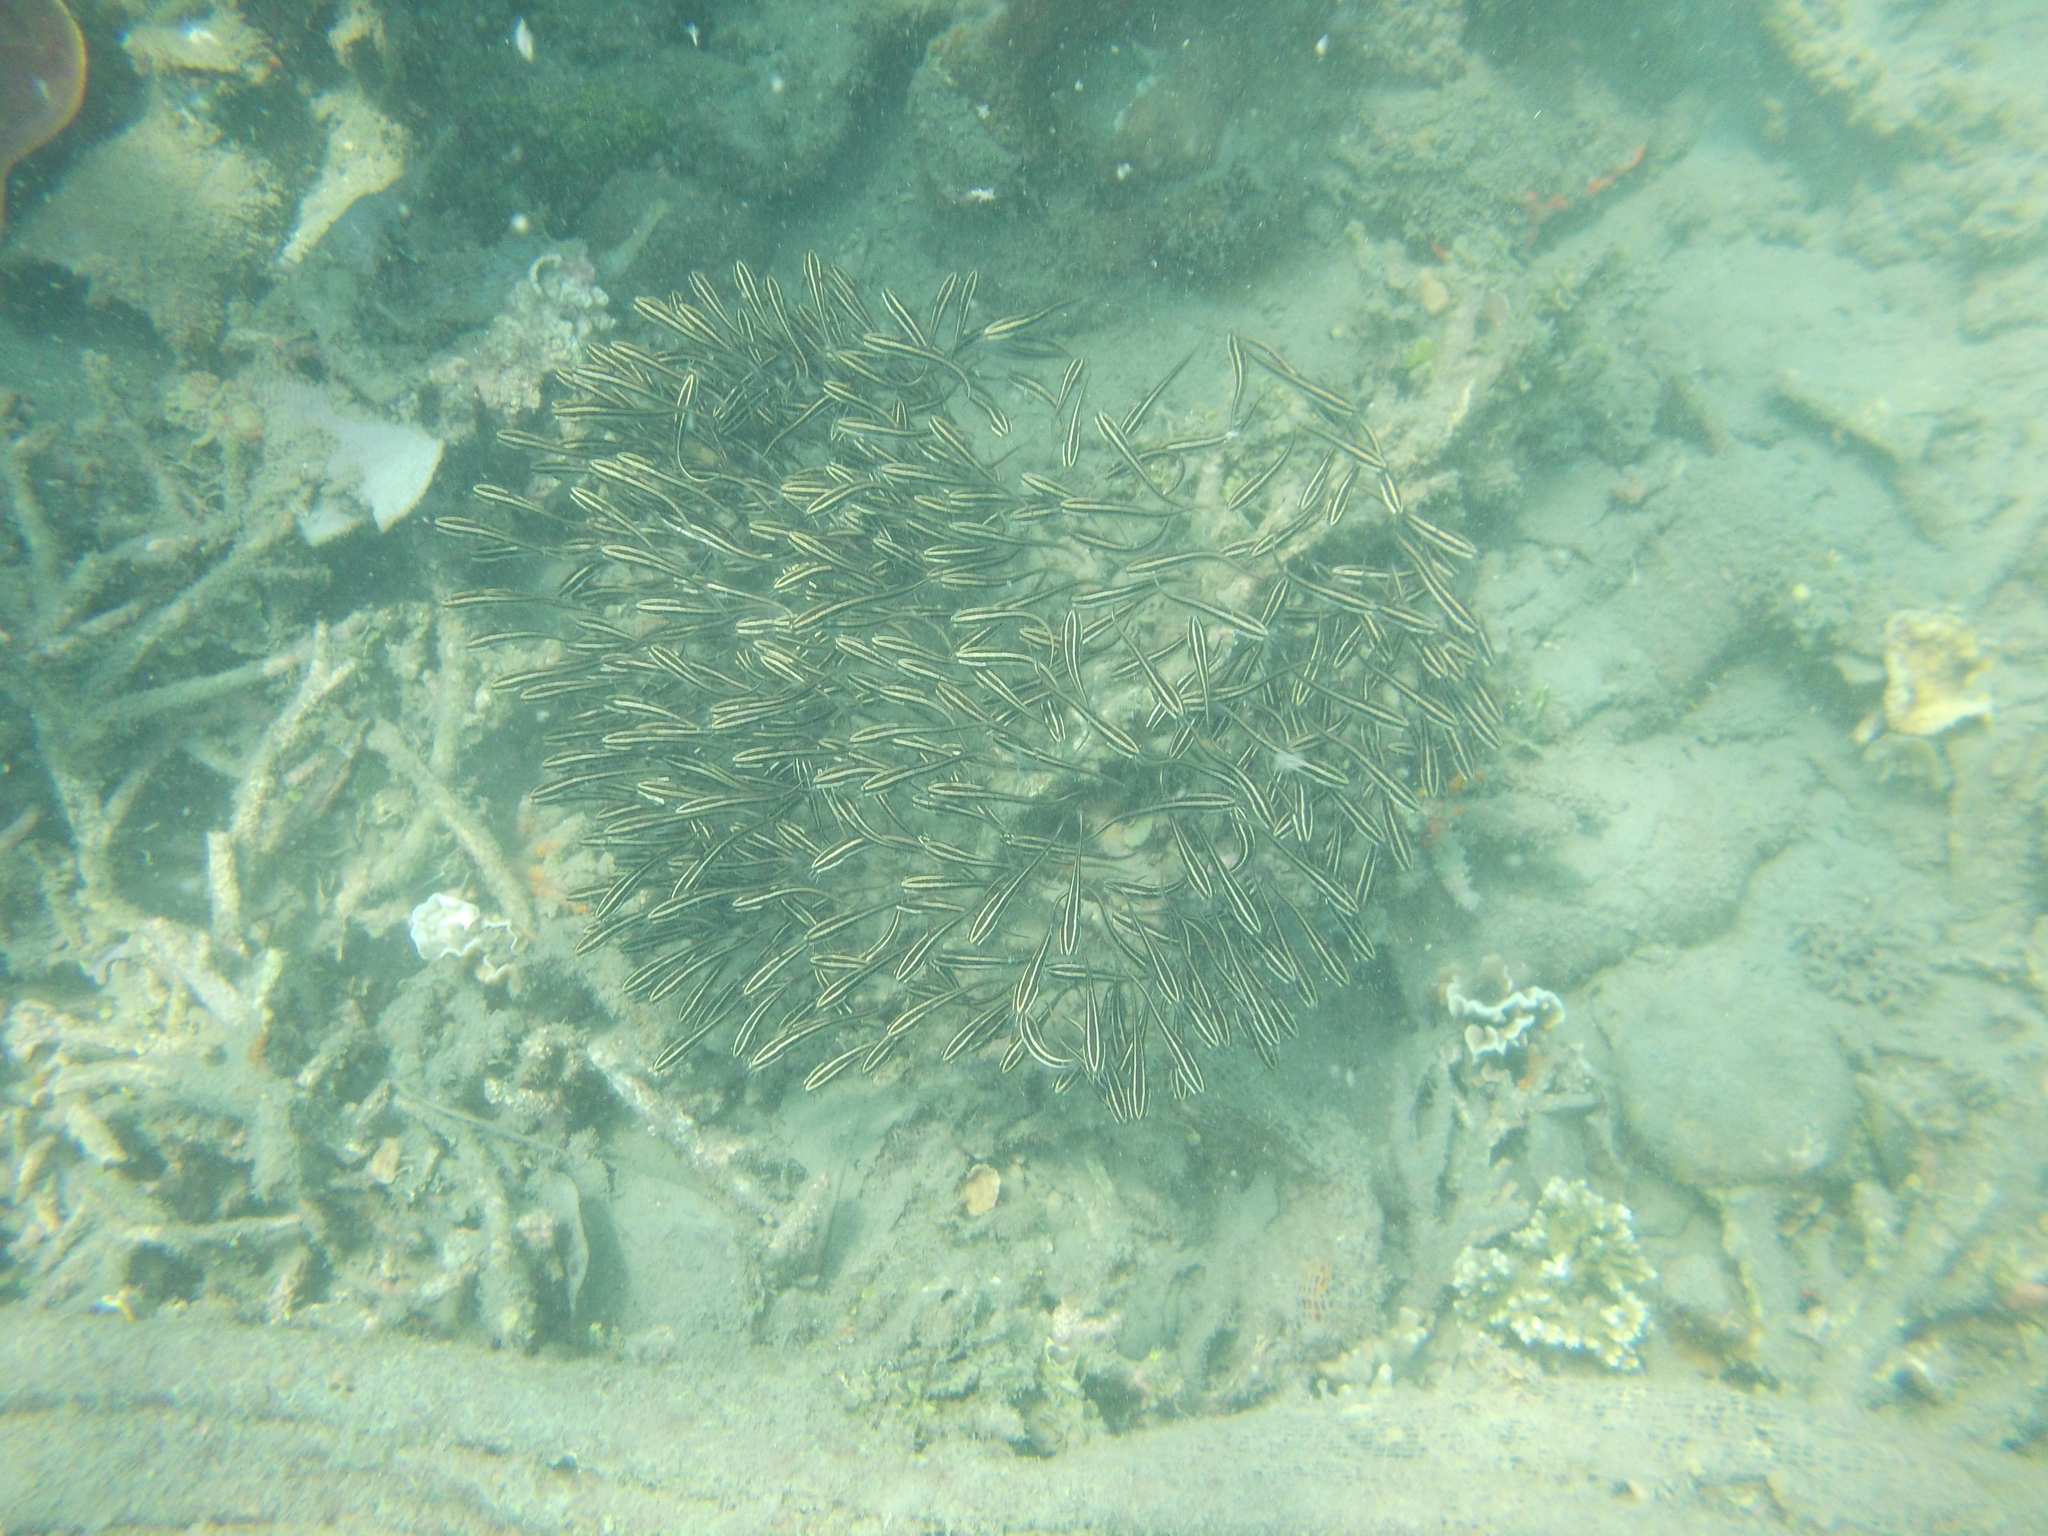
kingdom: Animalia
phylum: Chordata
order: Siluriformes
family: Plotosidae
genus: Plotosus
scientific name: Plotosus lineatus
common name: Striped eel catfish
